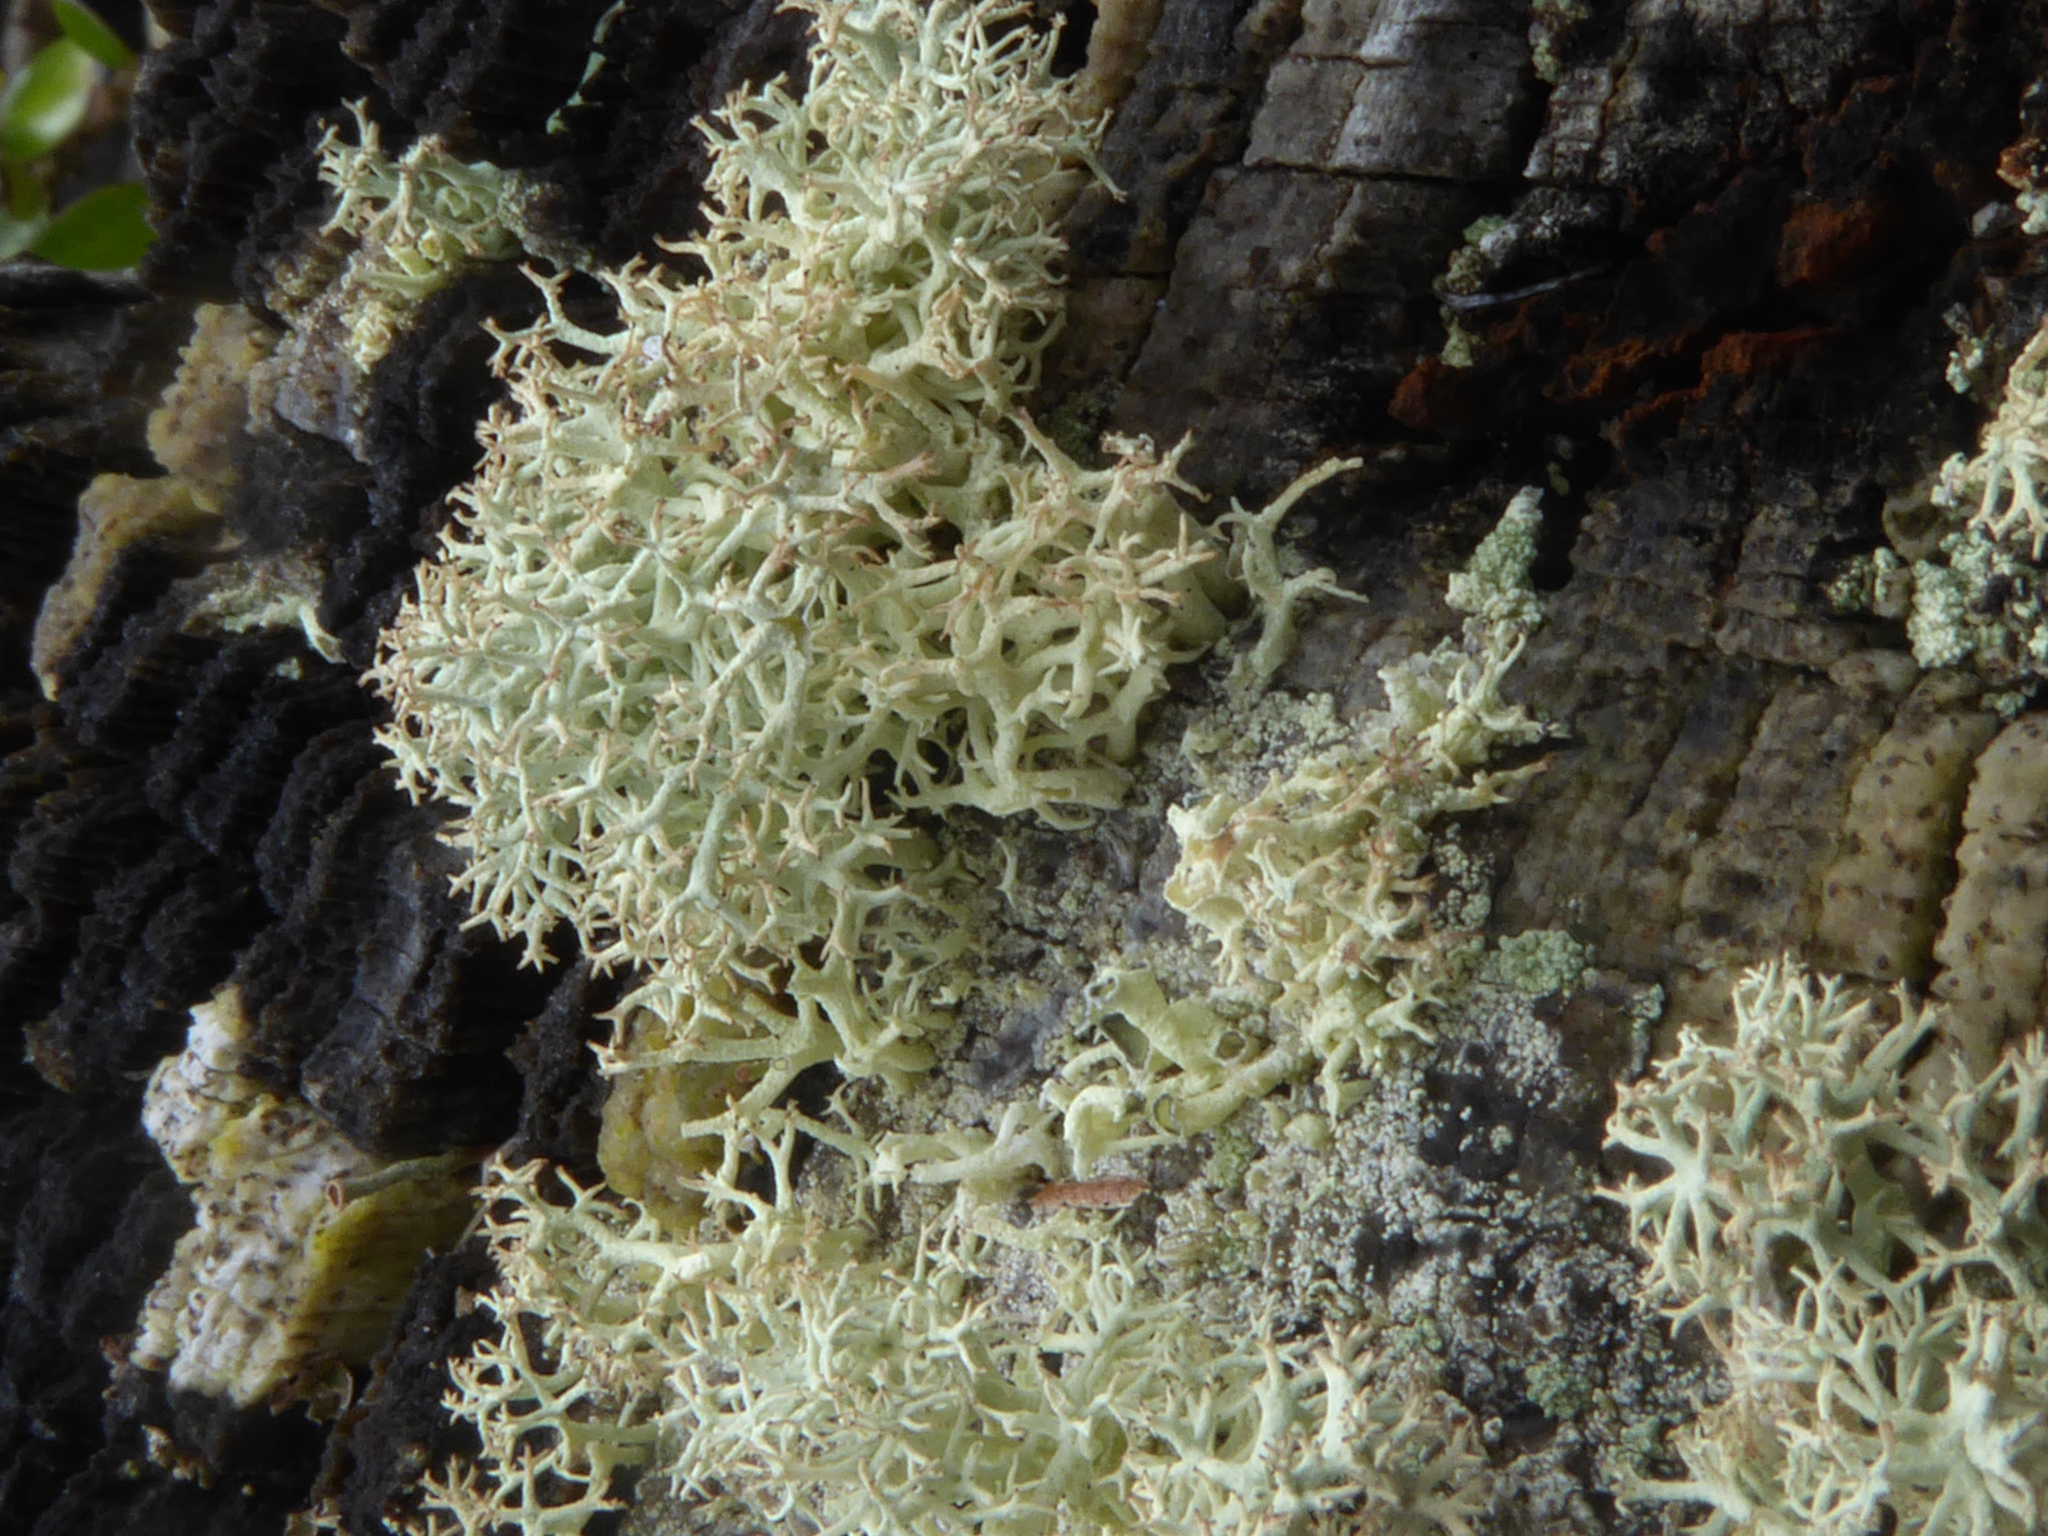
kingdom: Fungi
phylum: Ascomycota
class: Lecanoromycetes
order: Lecanorales
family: Cladoniaceae
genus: Cladonia
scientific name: Cladonia confusa
